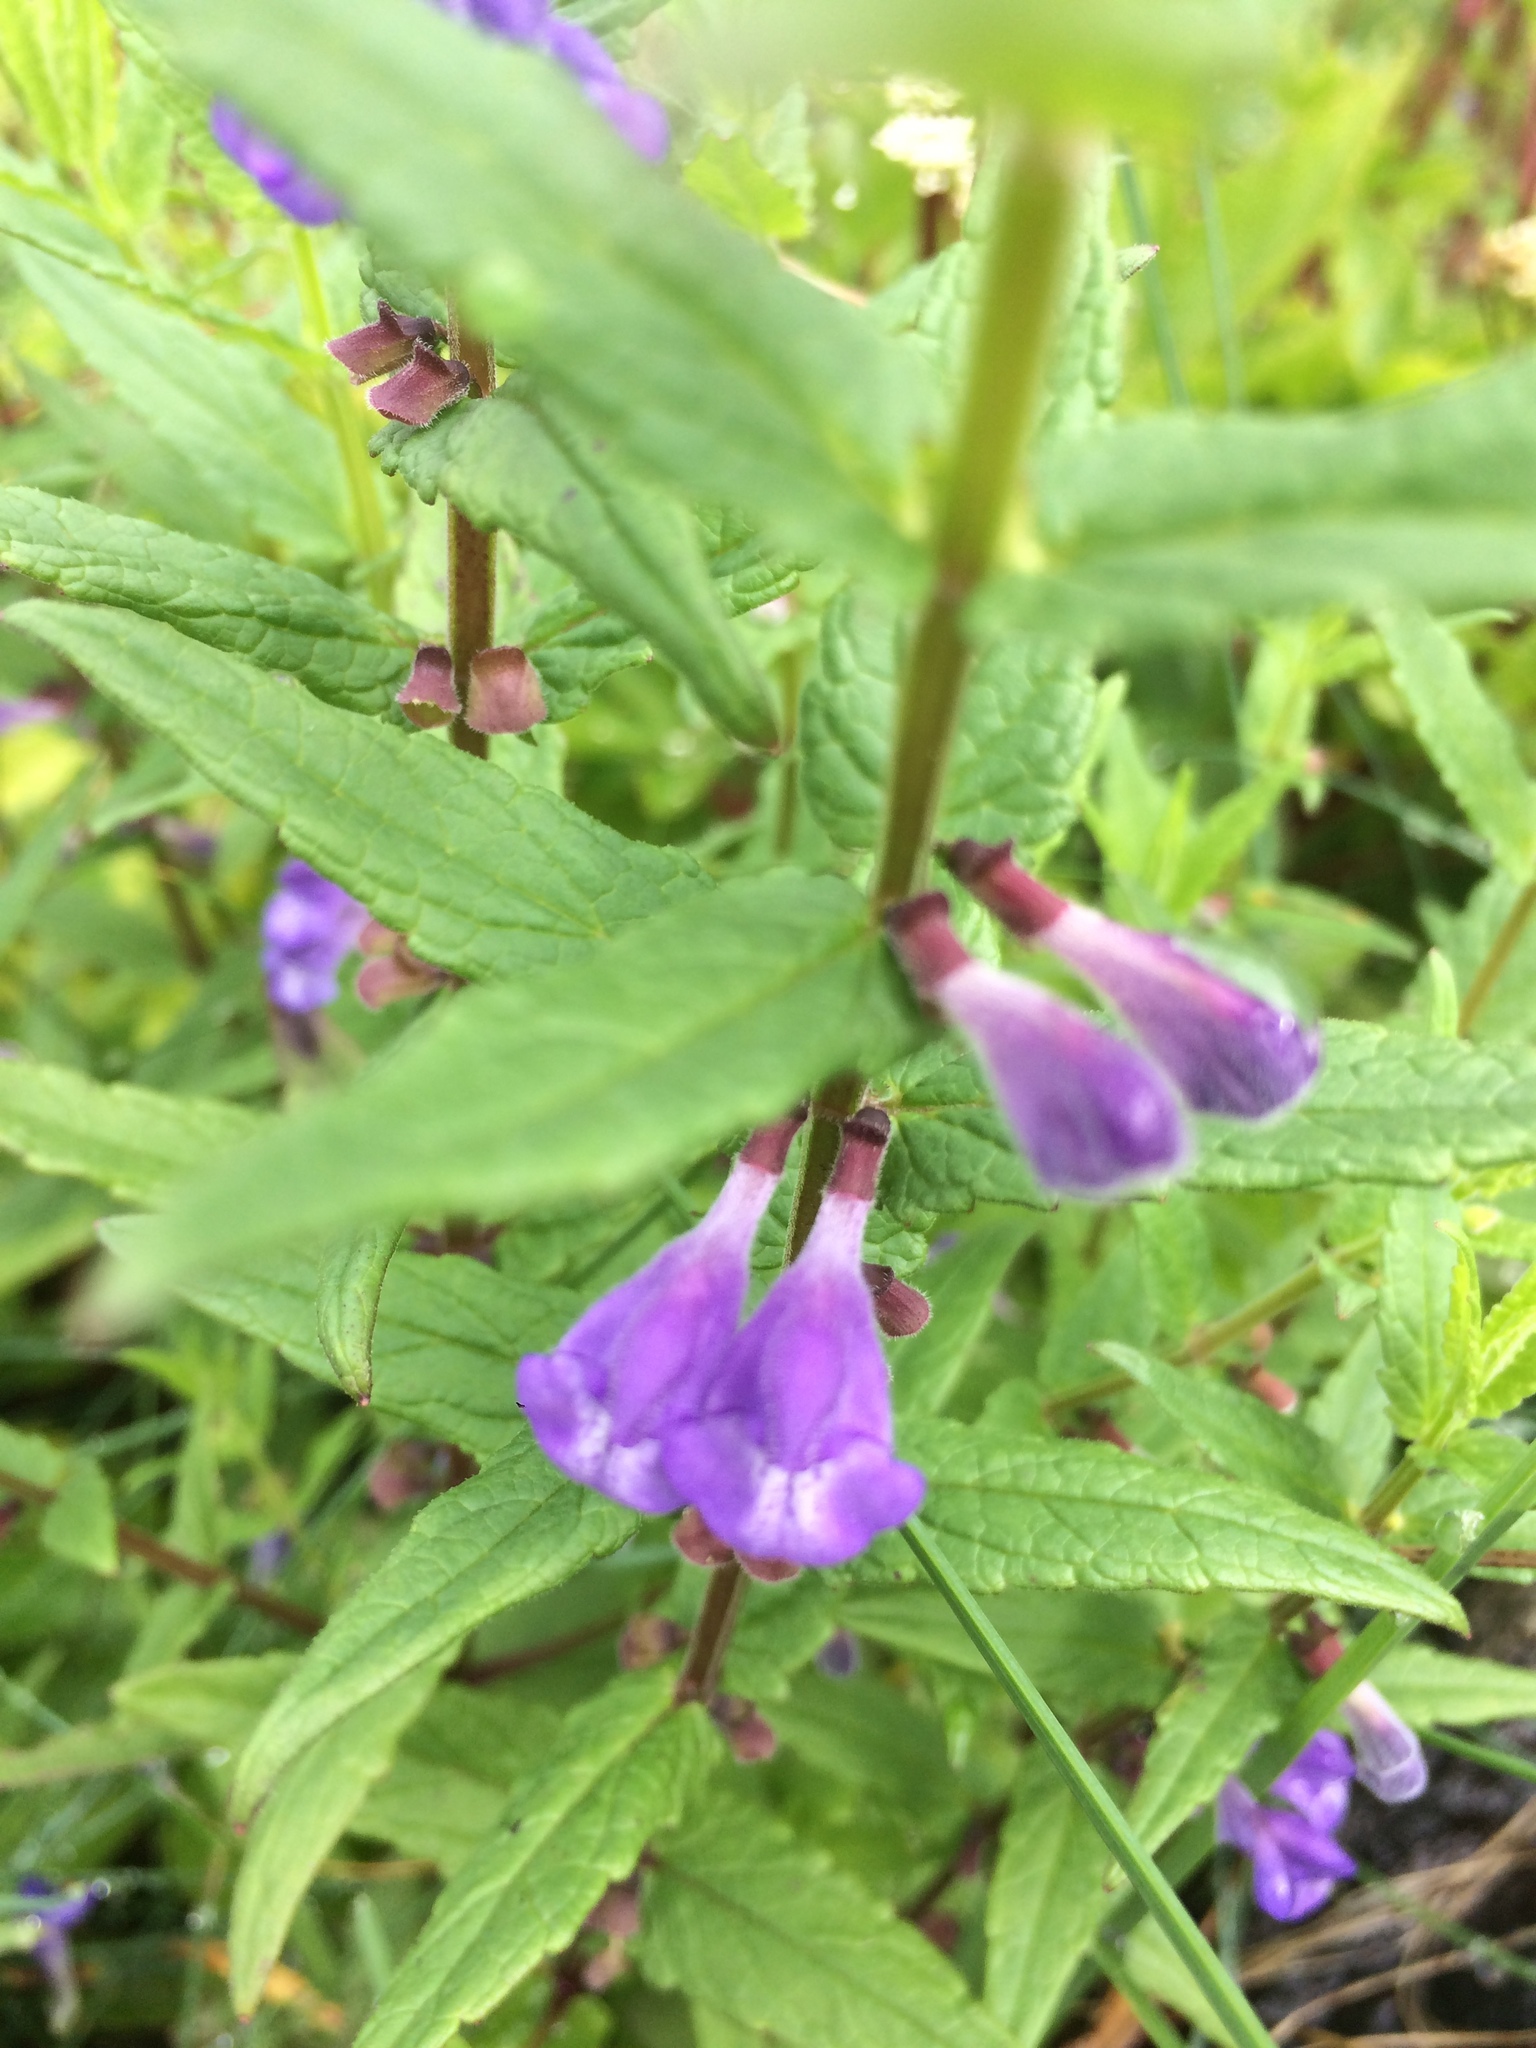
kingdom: Plantae
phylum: Tracheophyta
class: Magnoliopsida
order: Lamiales
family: Lamiaceae
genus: Scutellaria
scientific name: Scutellaria galericulata
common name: Skullcap
